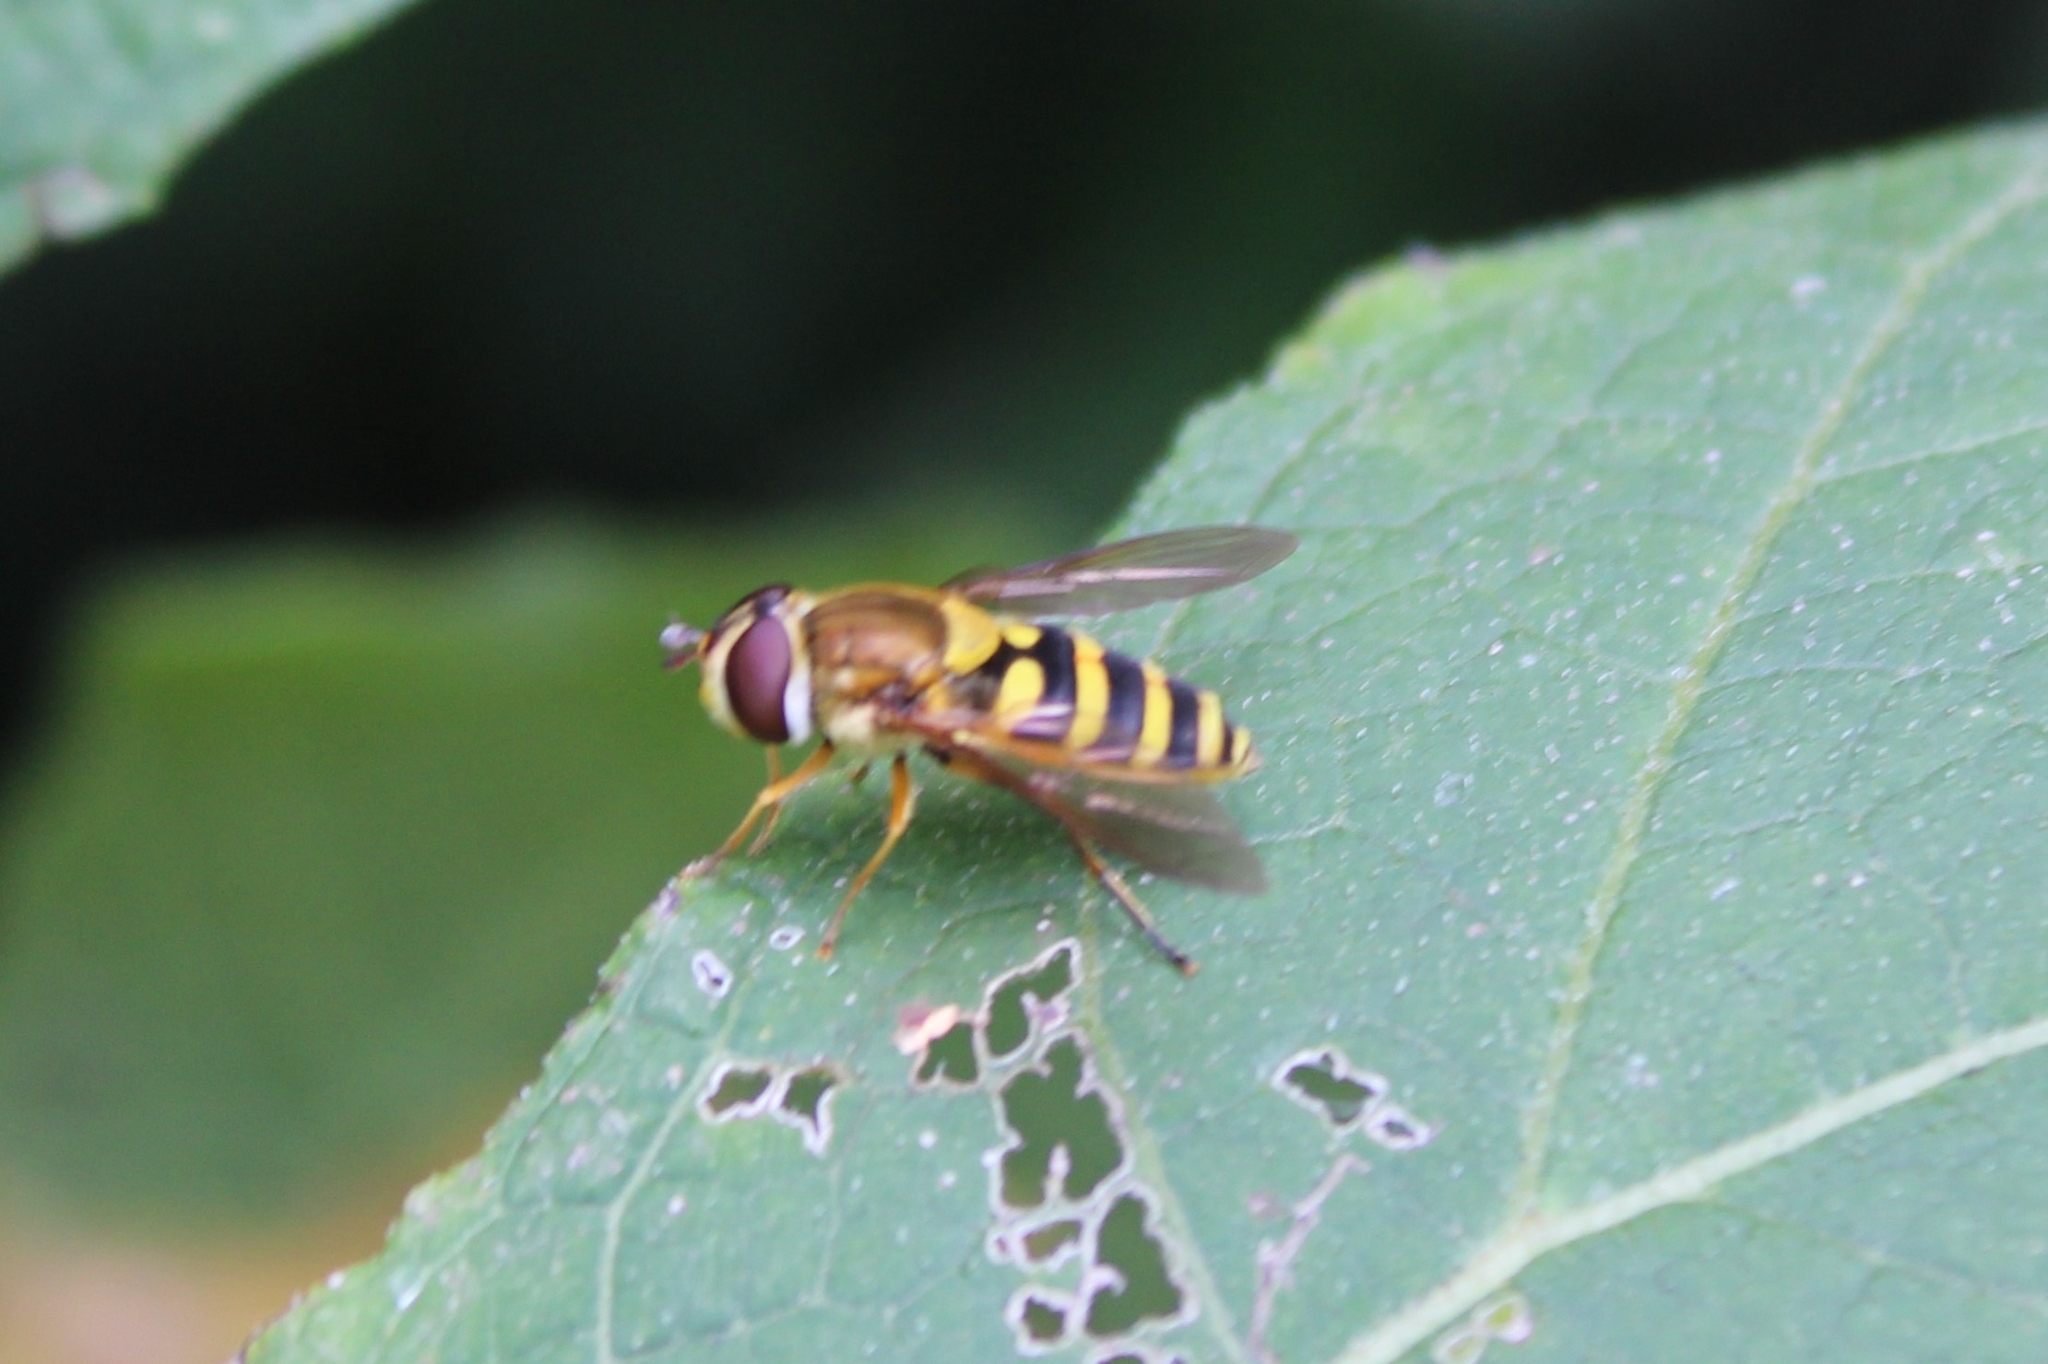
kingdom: Animalia
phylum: Arthropoda
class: Insecta
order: Diptera
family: Syrphidae
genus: Syrphus
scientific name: Syrphus rectus
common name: Yellow-legged flower fly
